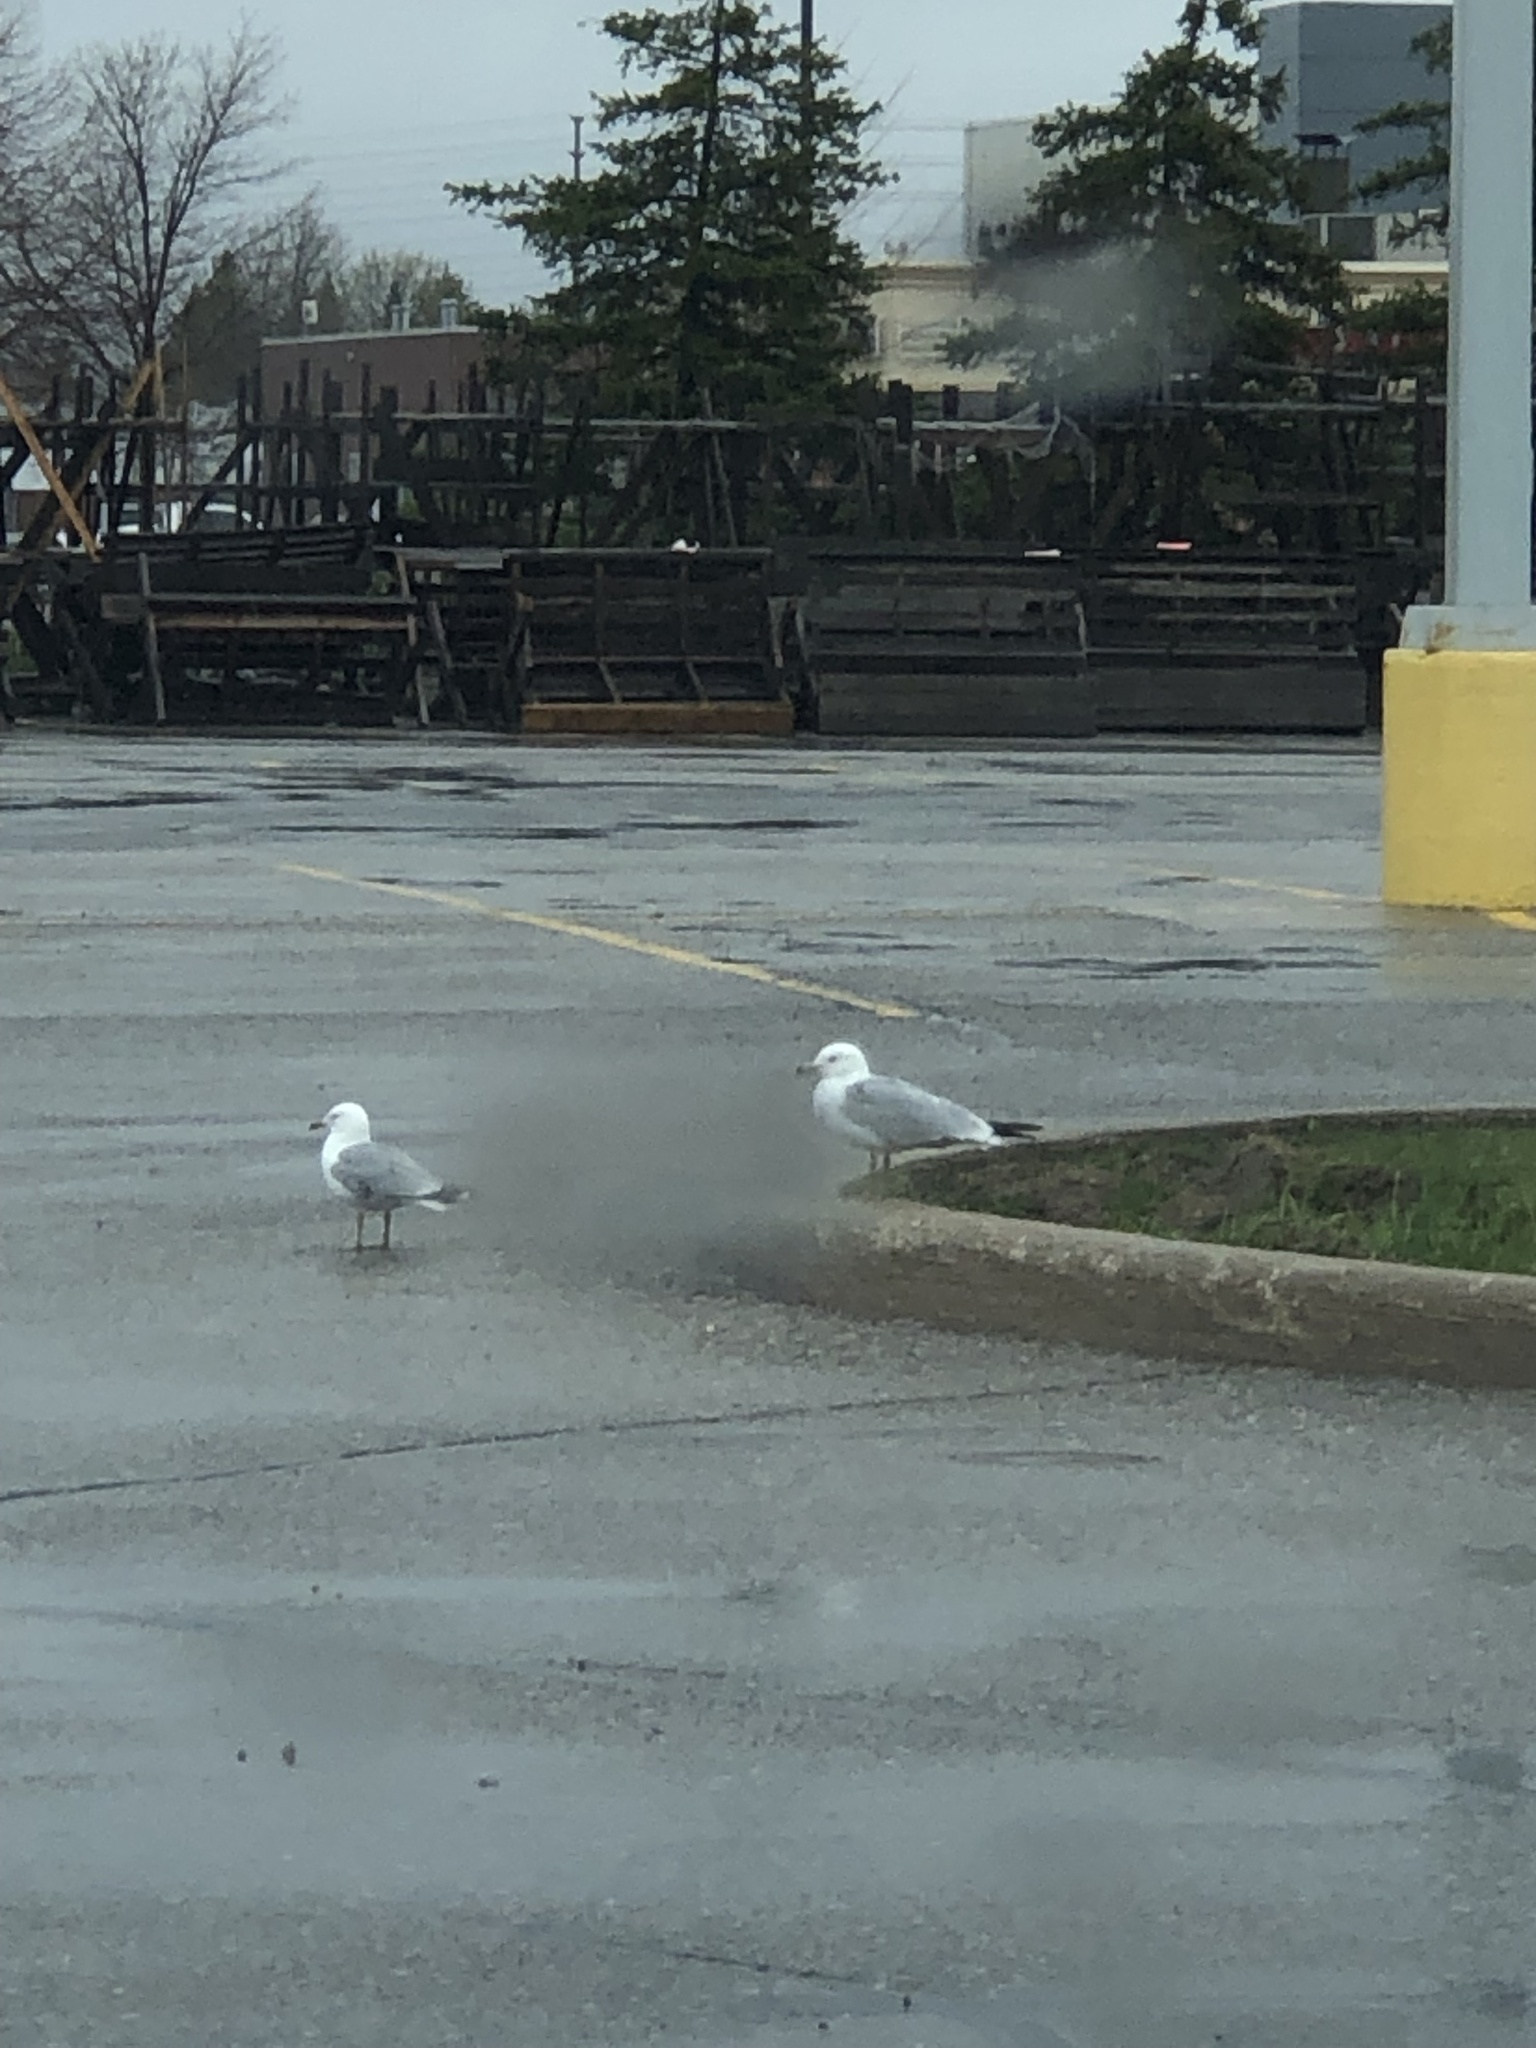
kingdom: Animalia
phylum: Chordata
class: Aves
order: Charadriiformes
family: Laridae
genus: Larus
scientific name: Larus delawarensis
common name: Ring-billed gull
